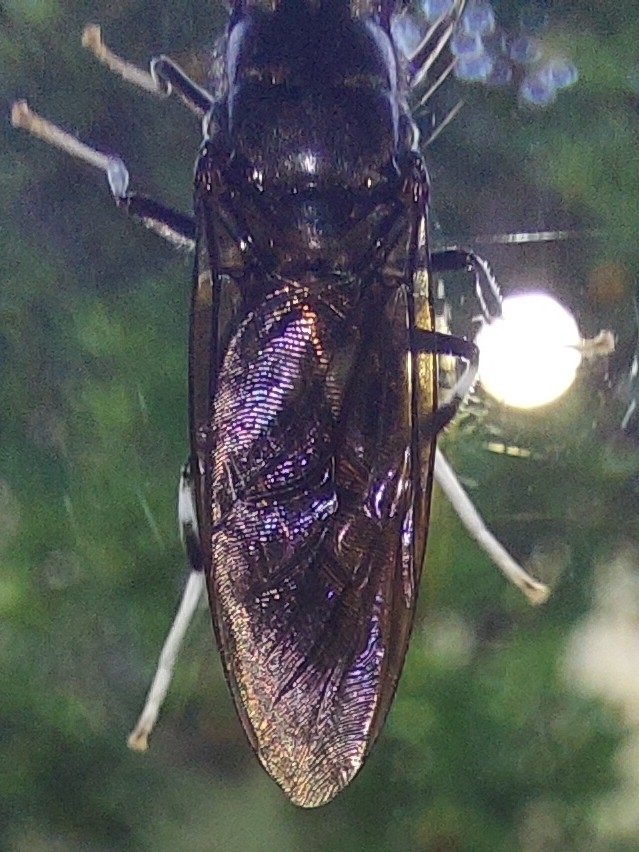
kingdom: Animalia
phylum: Arthropoda
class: Insecta
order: Diptera
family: Stratiomyidae
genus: Hermetia
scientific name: Hermetia illucens
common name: Black soldier fly
